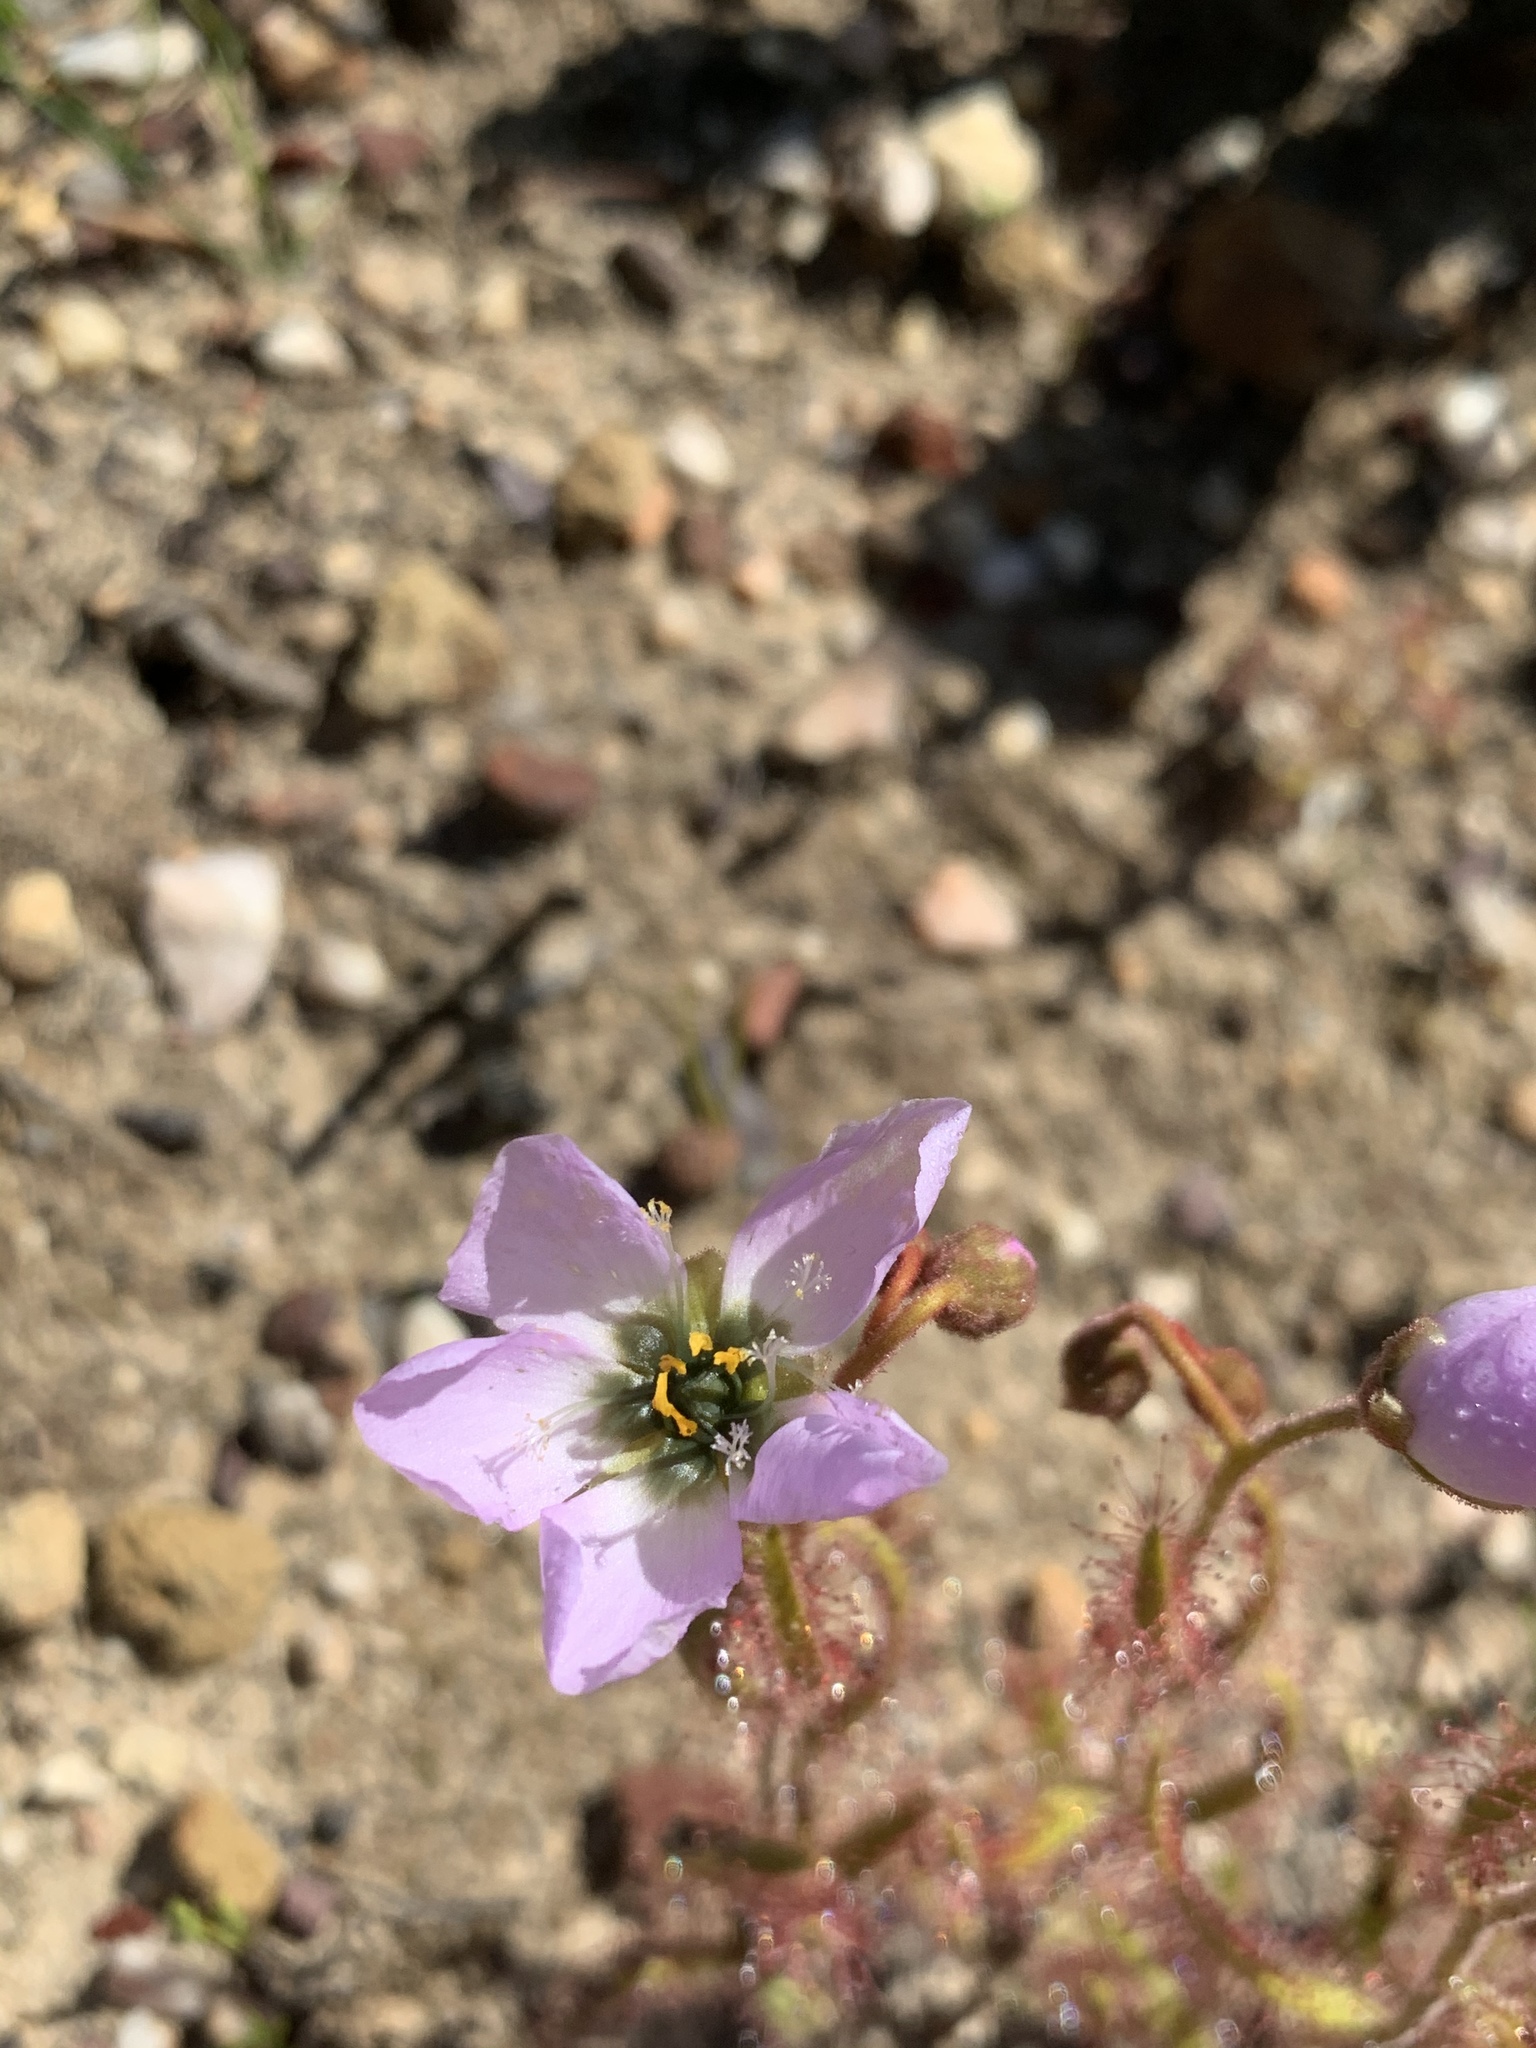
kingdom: Plantae
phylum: Tracheophyta
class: Magnoliopsida
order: Caryophyllales
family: Droseraceae
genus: Drosera
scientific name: Drosera cistiflora
